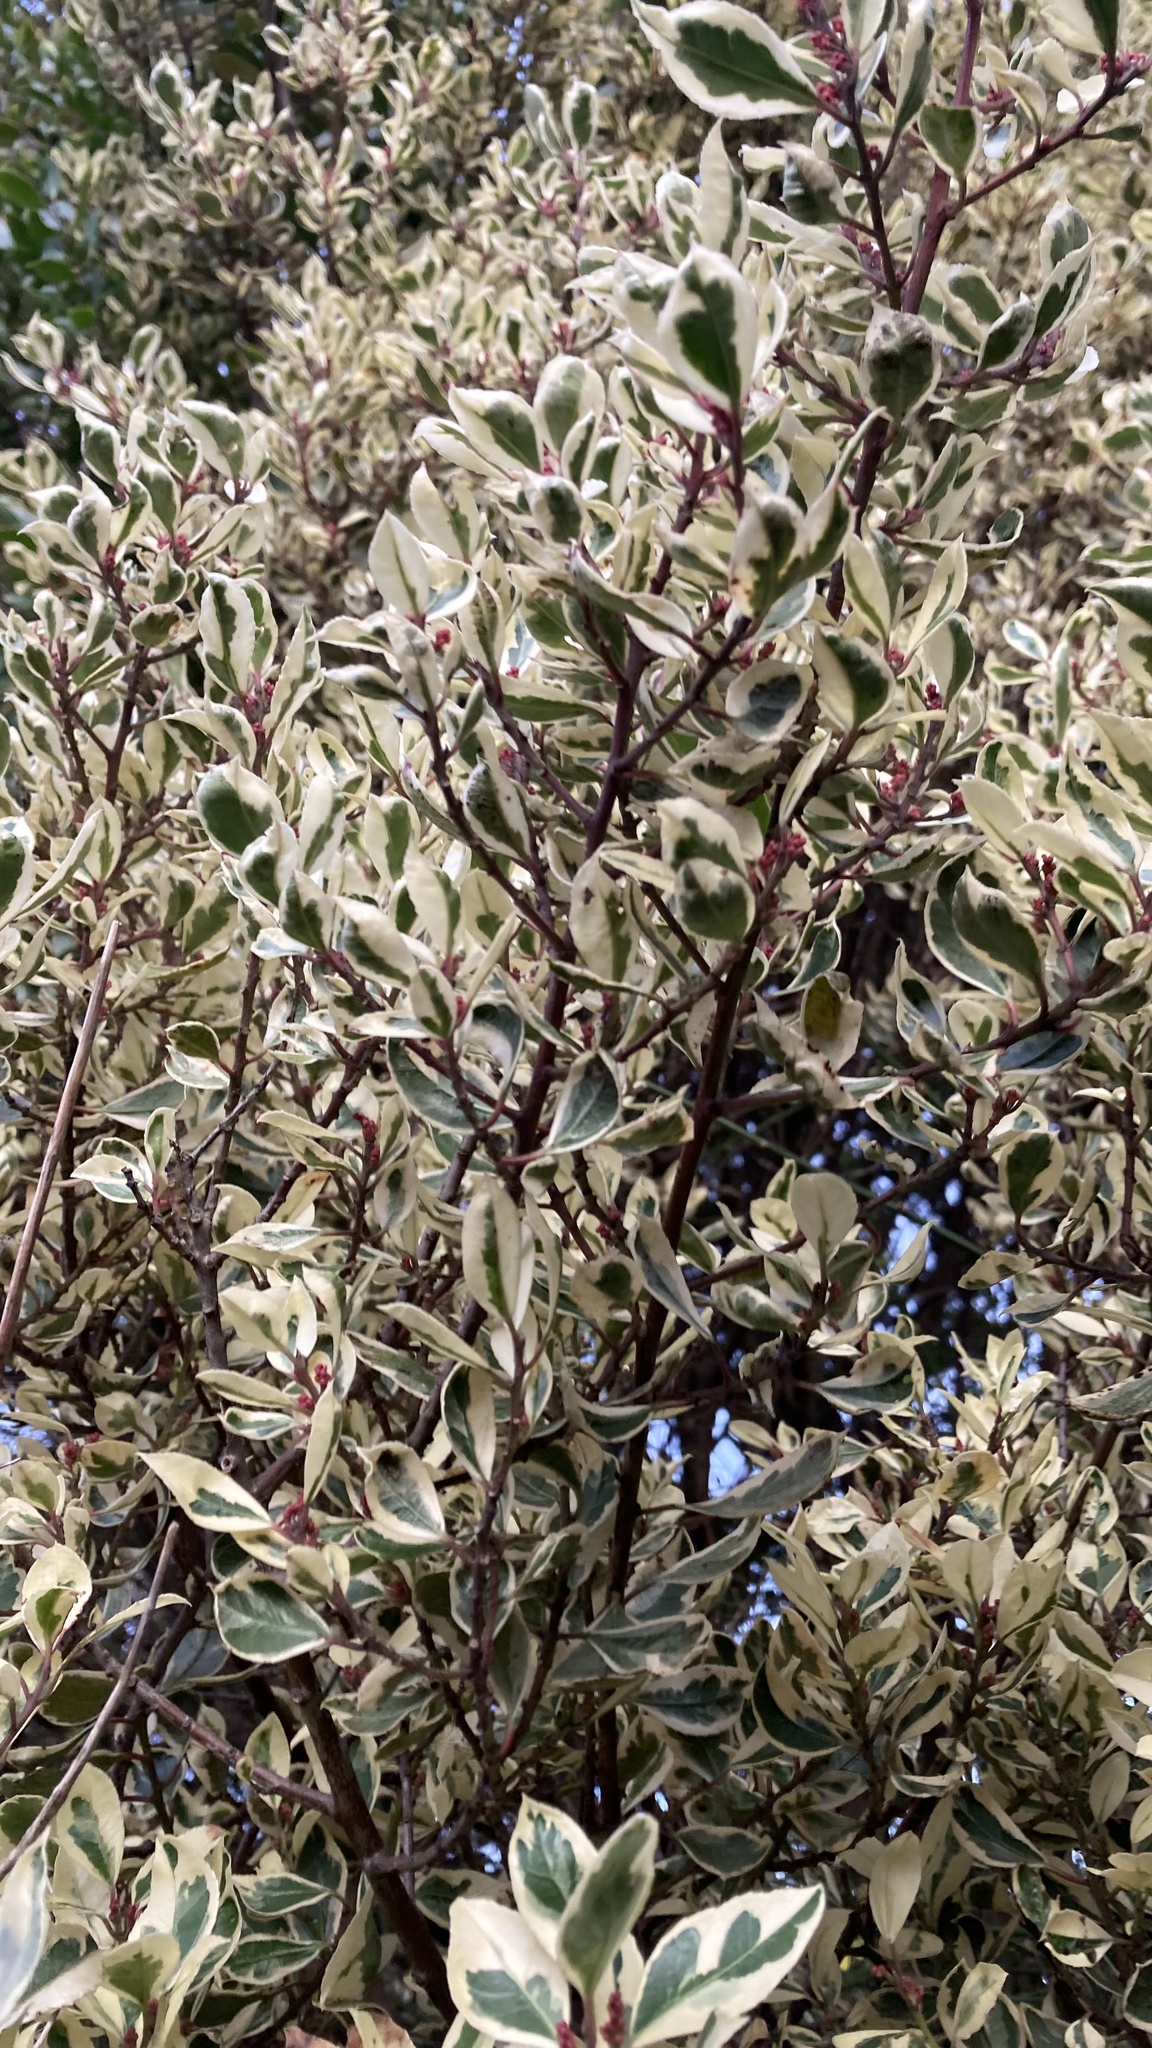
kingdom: Plantae
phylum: Tracheophyta
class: Magnoliopsida
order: Rosales
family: Rhamnaceae
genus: Rhamnus
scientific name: Rhamnus alaternus
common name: Mediterranean buckthorn
